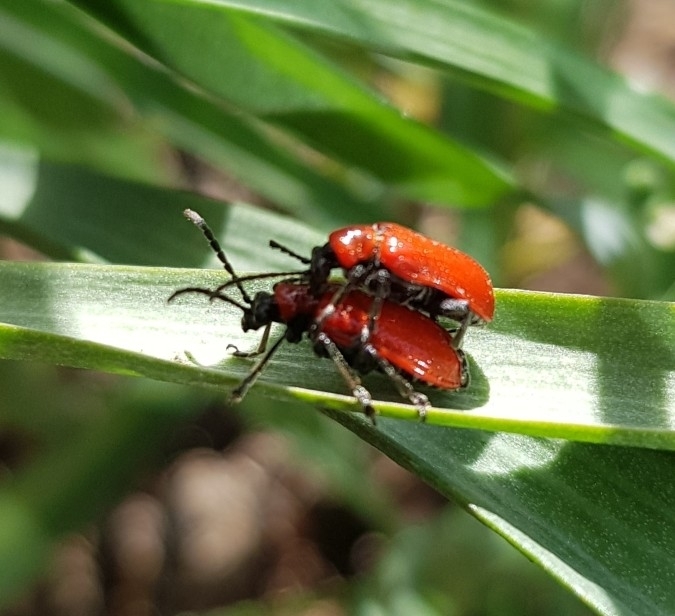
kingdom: Animalia
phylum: Arthropoda
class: Insecta
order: Coleoptera
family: Chrysomelidae
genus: Lilioceris
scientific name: Lilioceris lilii
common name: Lily beetle
